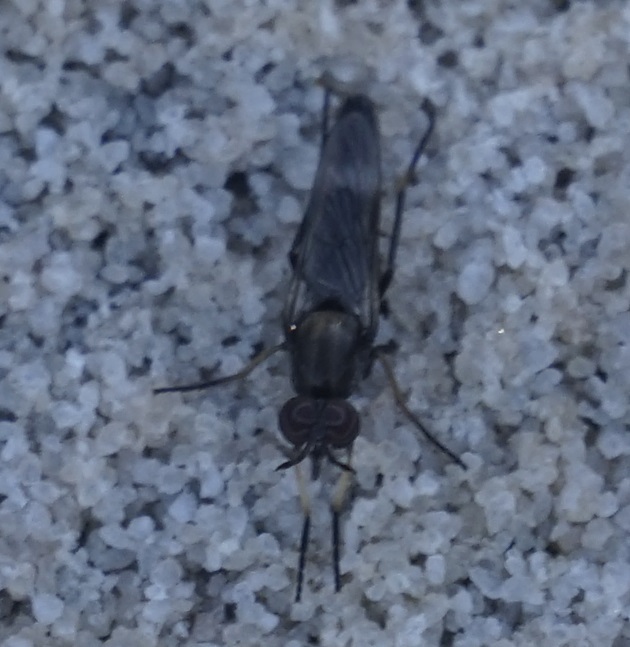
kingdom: Animalia
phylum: Arthropoda
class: Insecta
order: Diptera
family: Therevidae
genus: Agapophytus
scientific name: Agapophytus antheliogynaion
